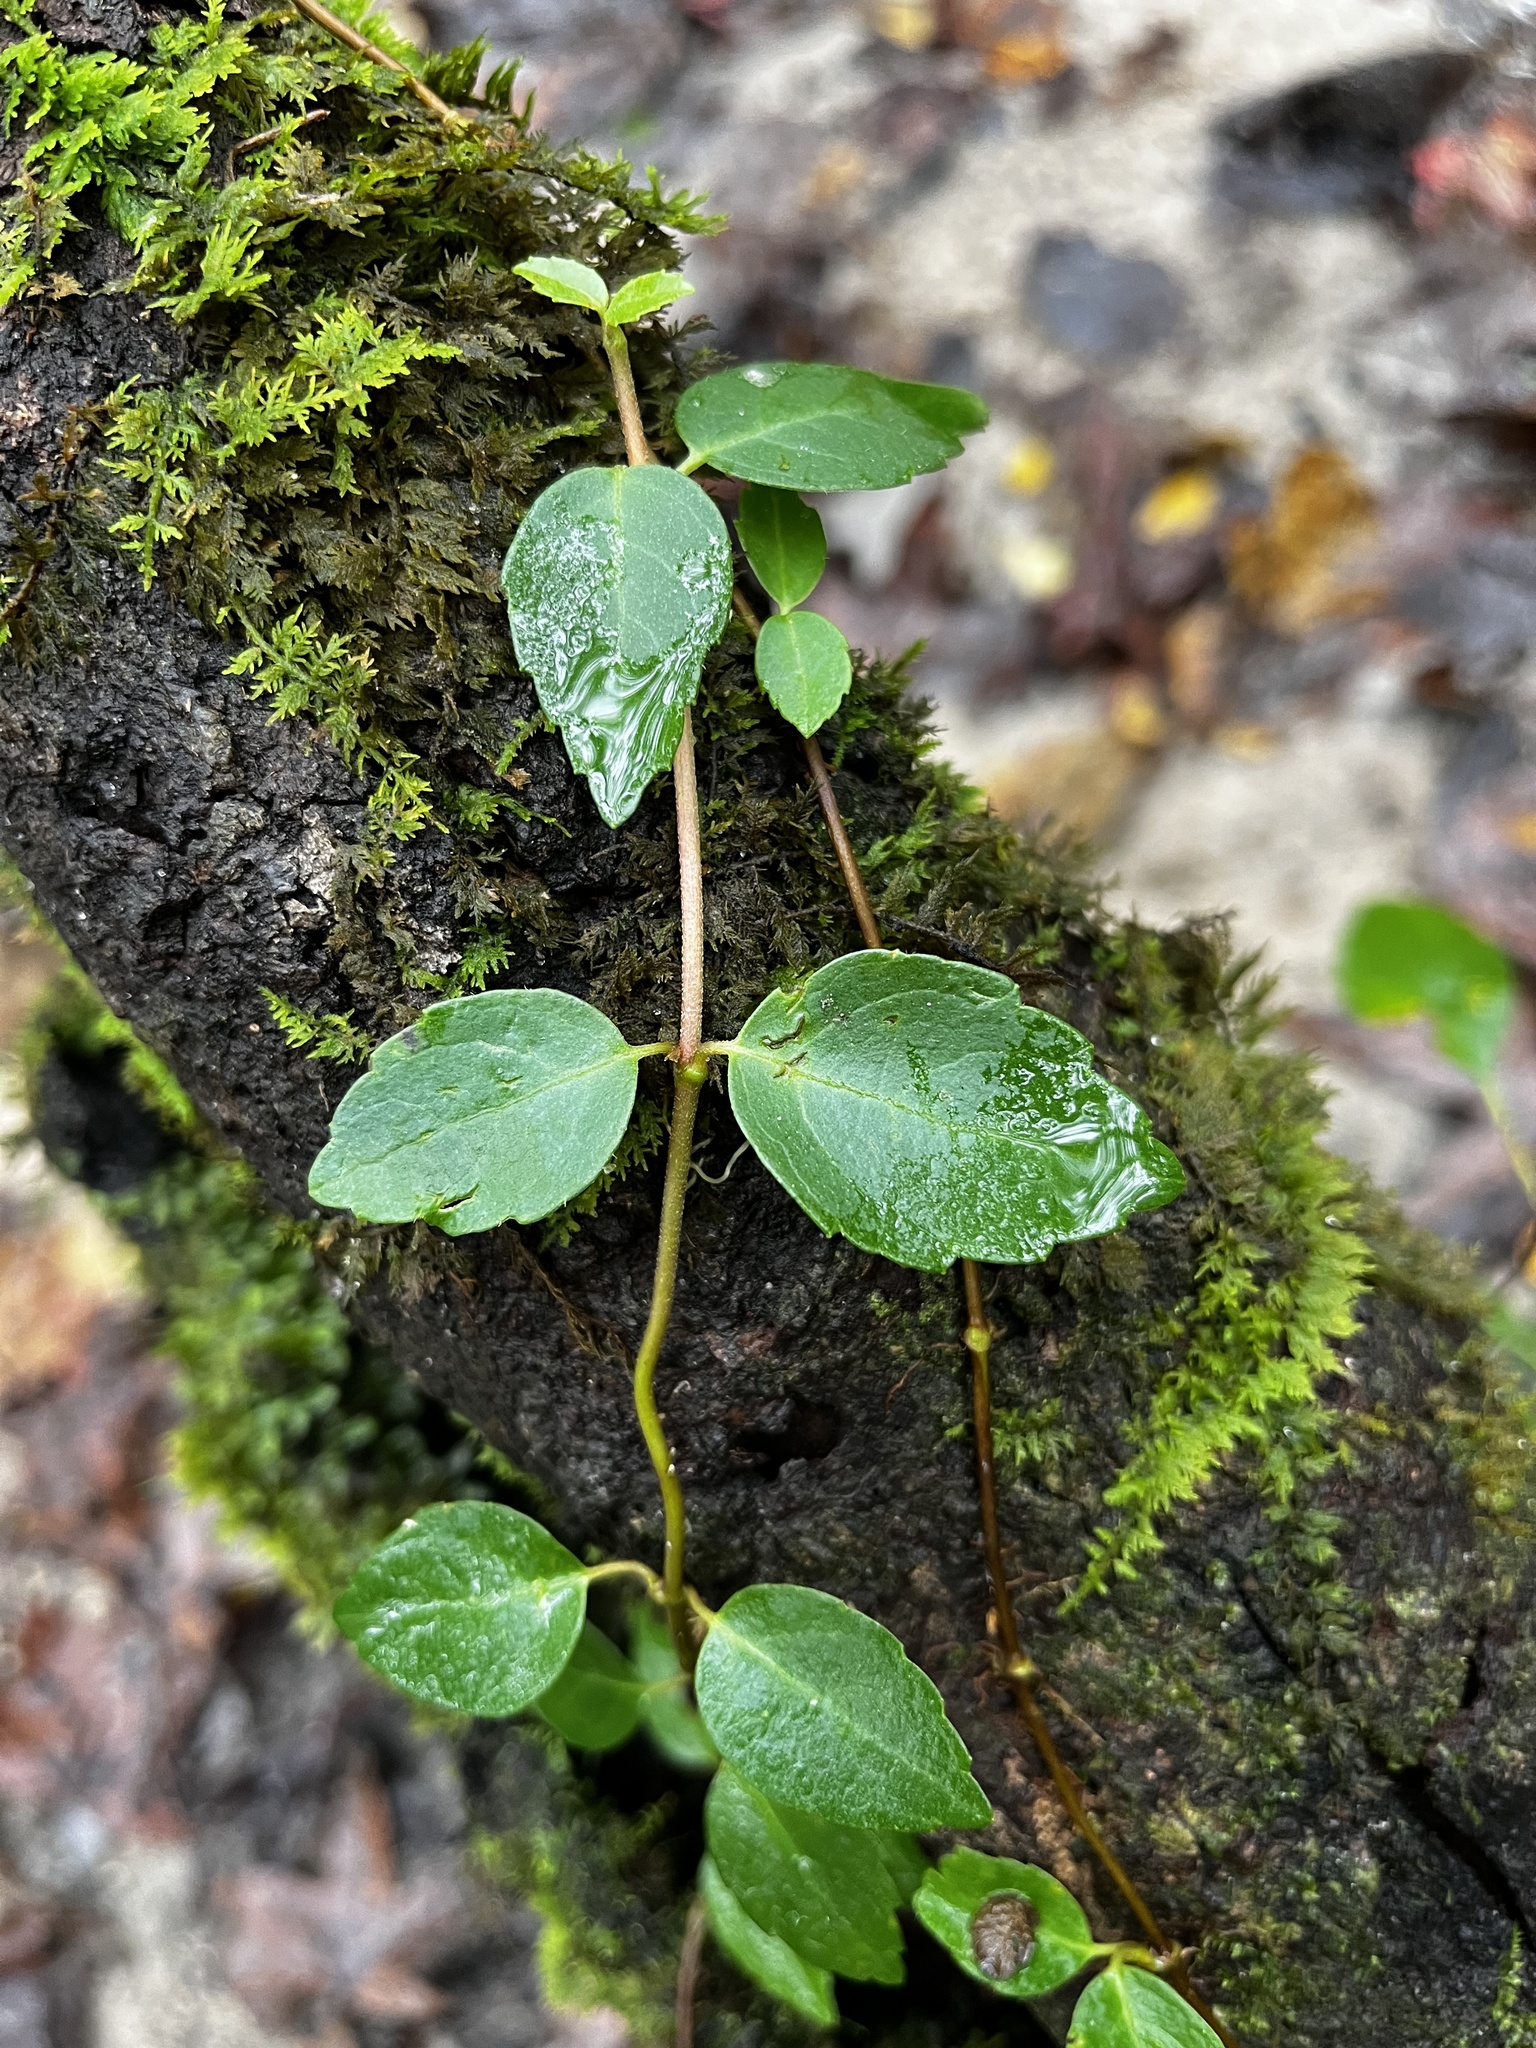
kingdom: Plantae
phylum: Tracheophyta
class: Magnoliopsida
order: Cornales
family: Hydrangeaceae
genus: Hydrangea
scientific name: Hydrangea barbara
